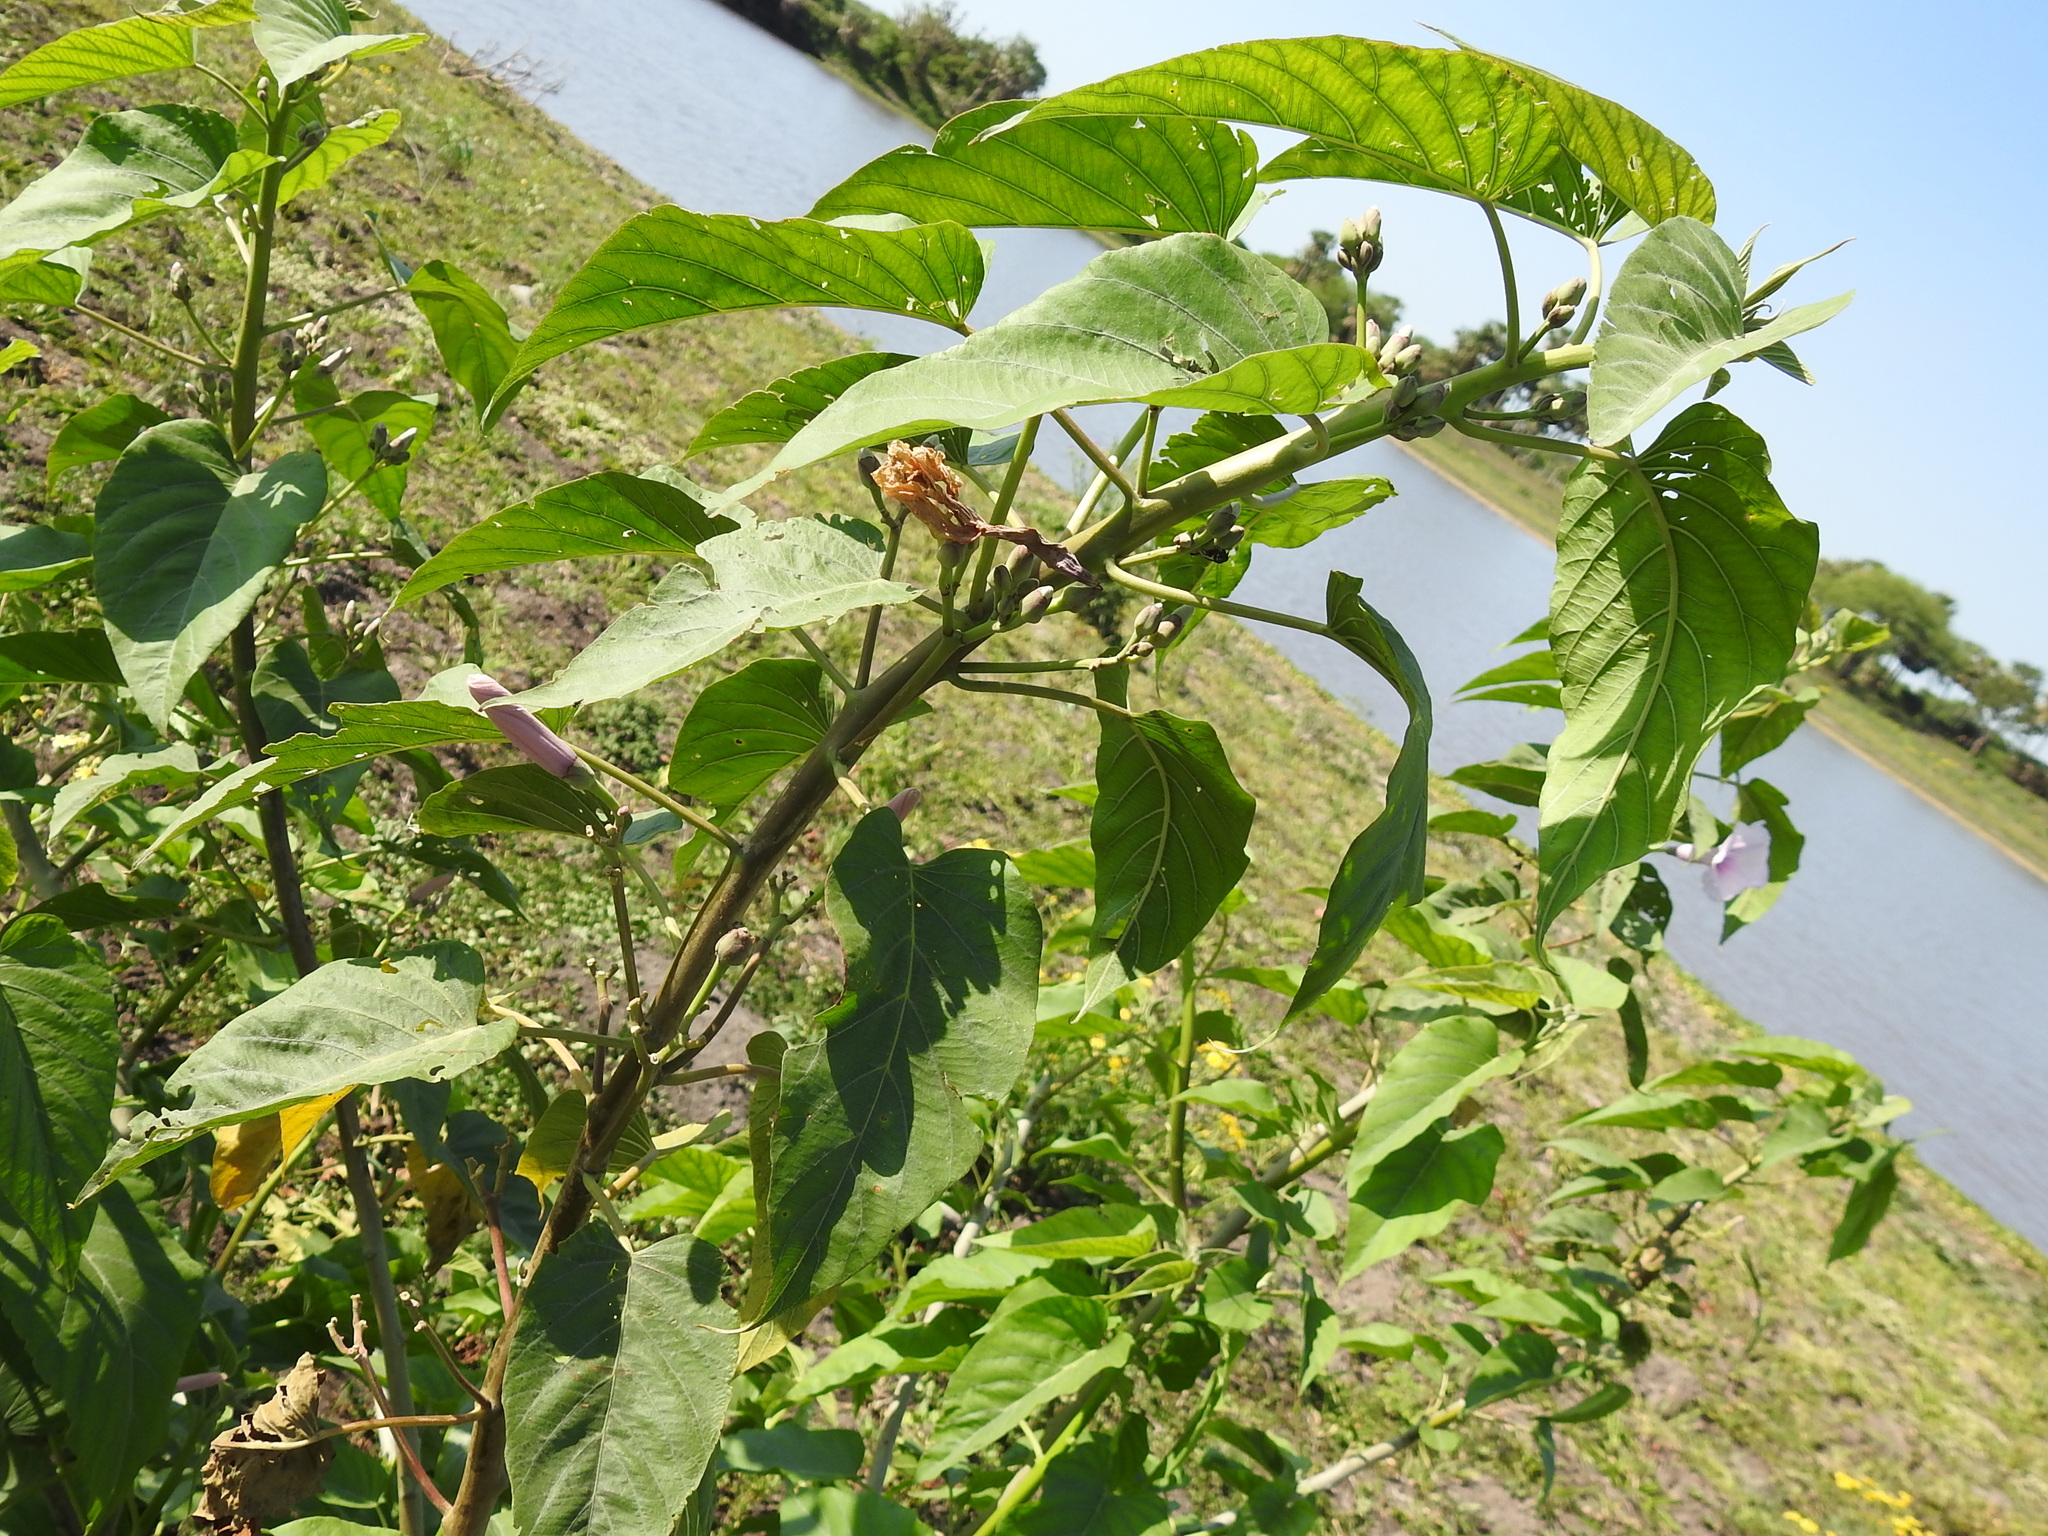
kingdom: Plantae
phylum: Tracheophyta
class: Magnoliopsida
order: Solanales
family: Convolvulaceae
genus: Ipomoea
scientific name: Ipomoea carnea
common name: Morning-glory
